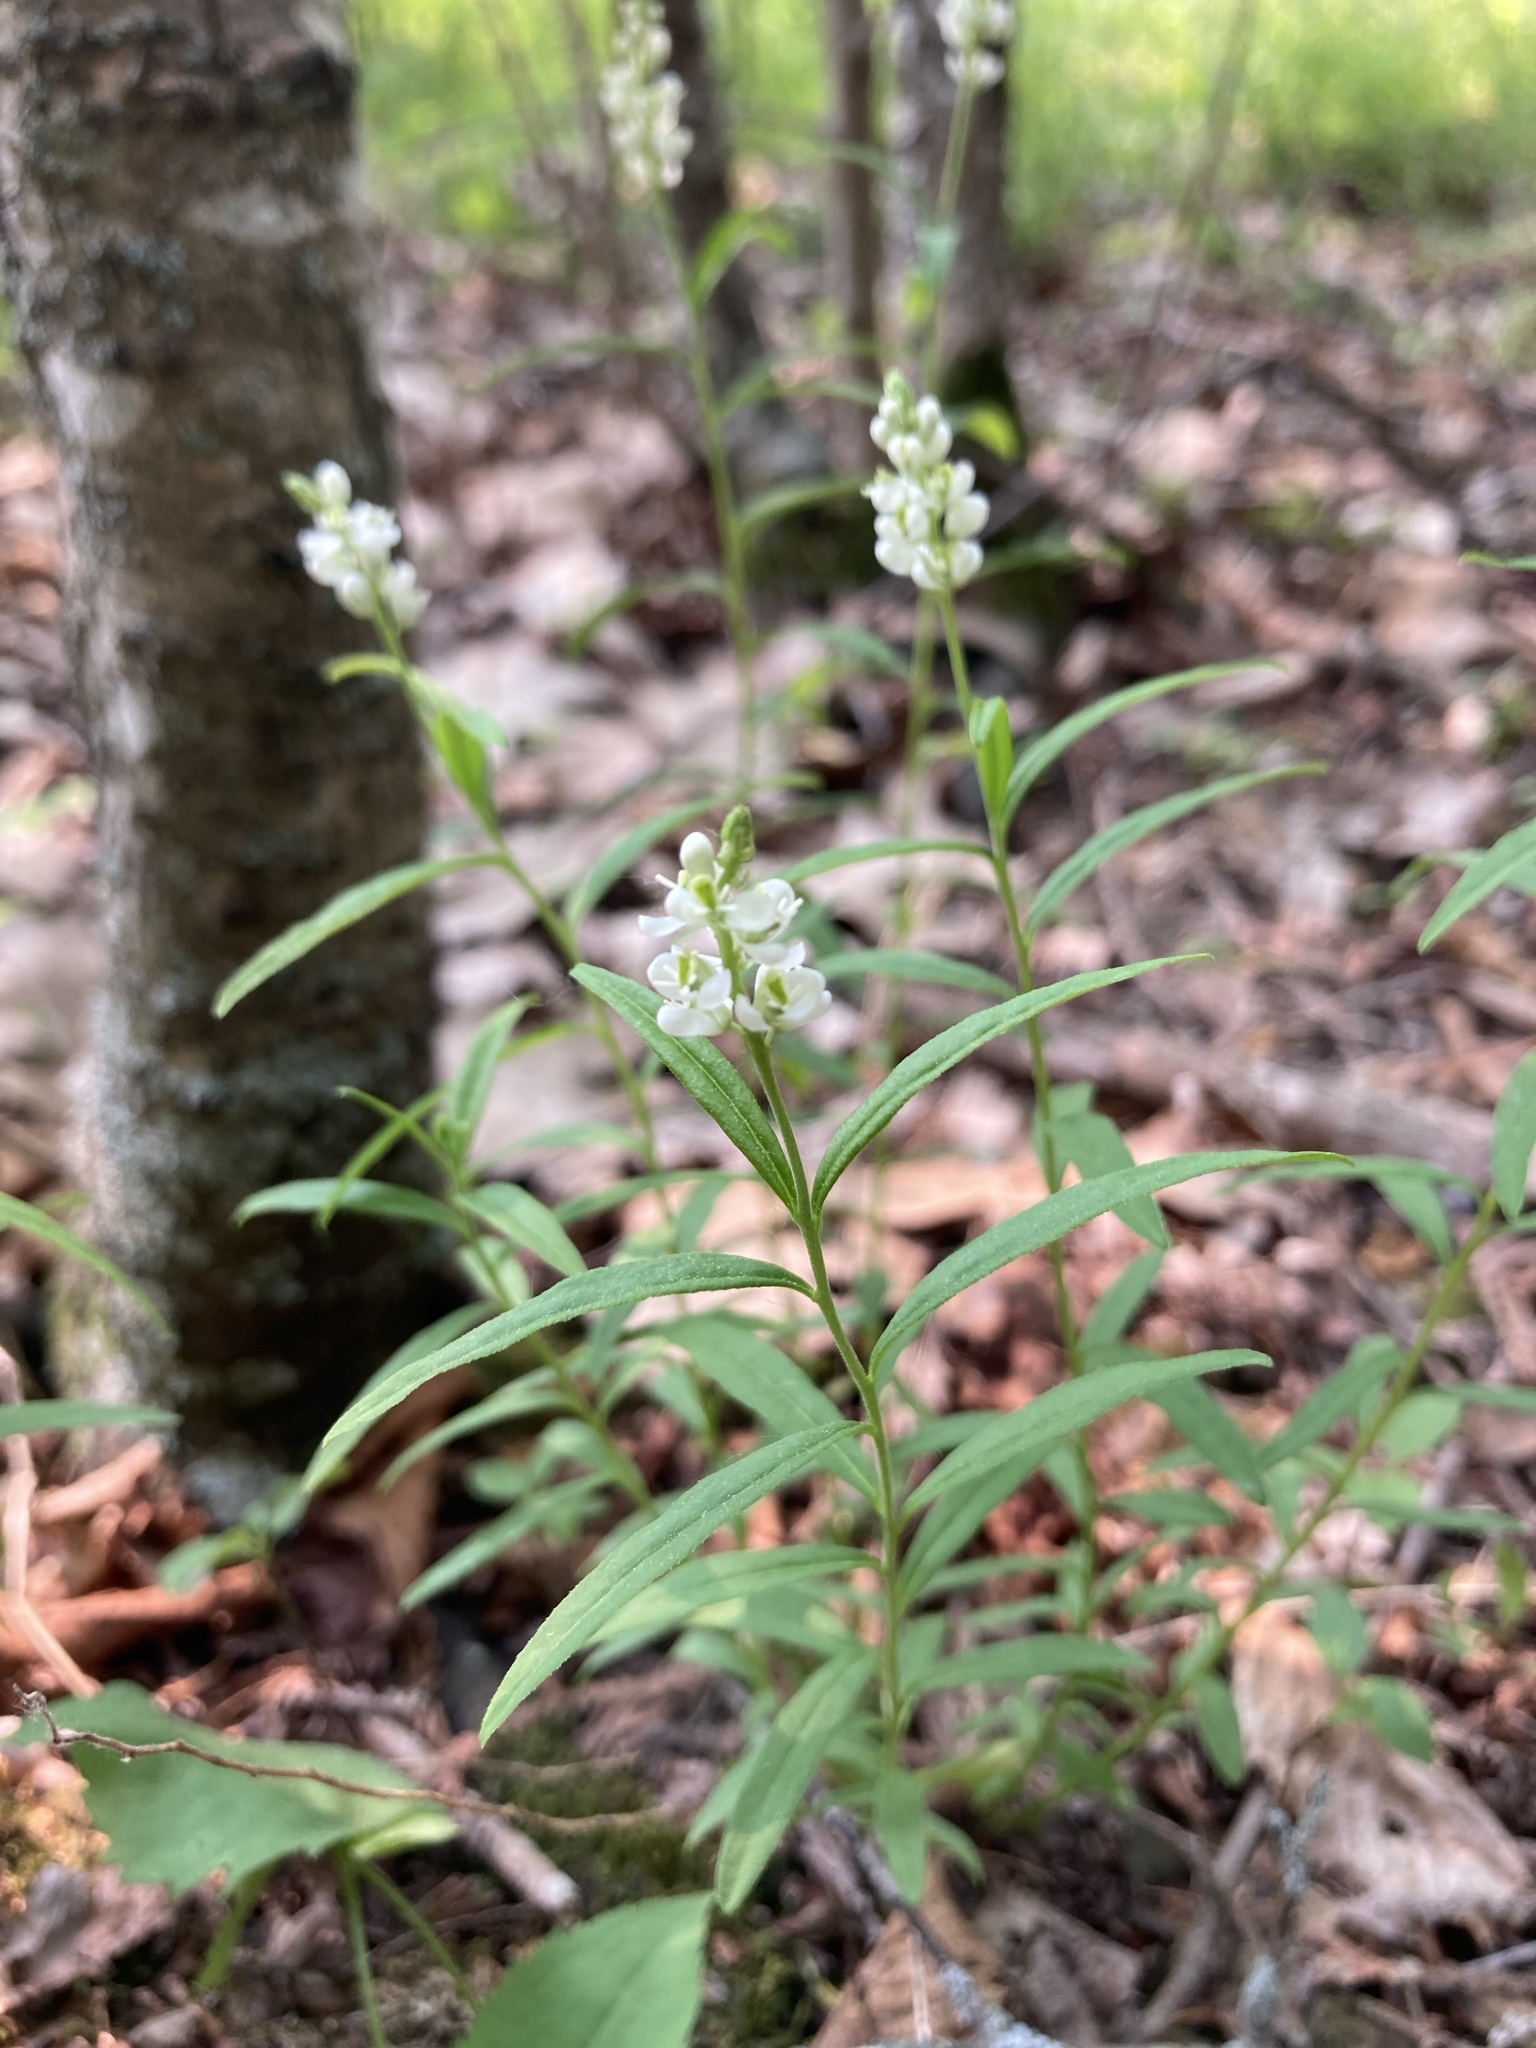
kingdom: Plantae
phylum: Tracheophyta
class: Magnoliopsida
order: Fabales
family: Polygalaceae
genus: Polygala
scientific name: Polygala senega
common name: Seneca snakeroot
